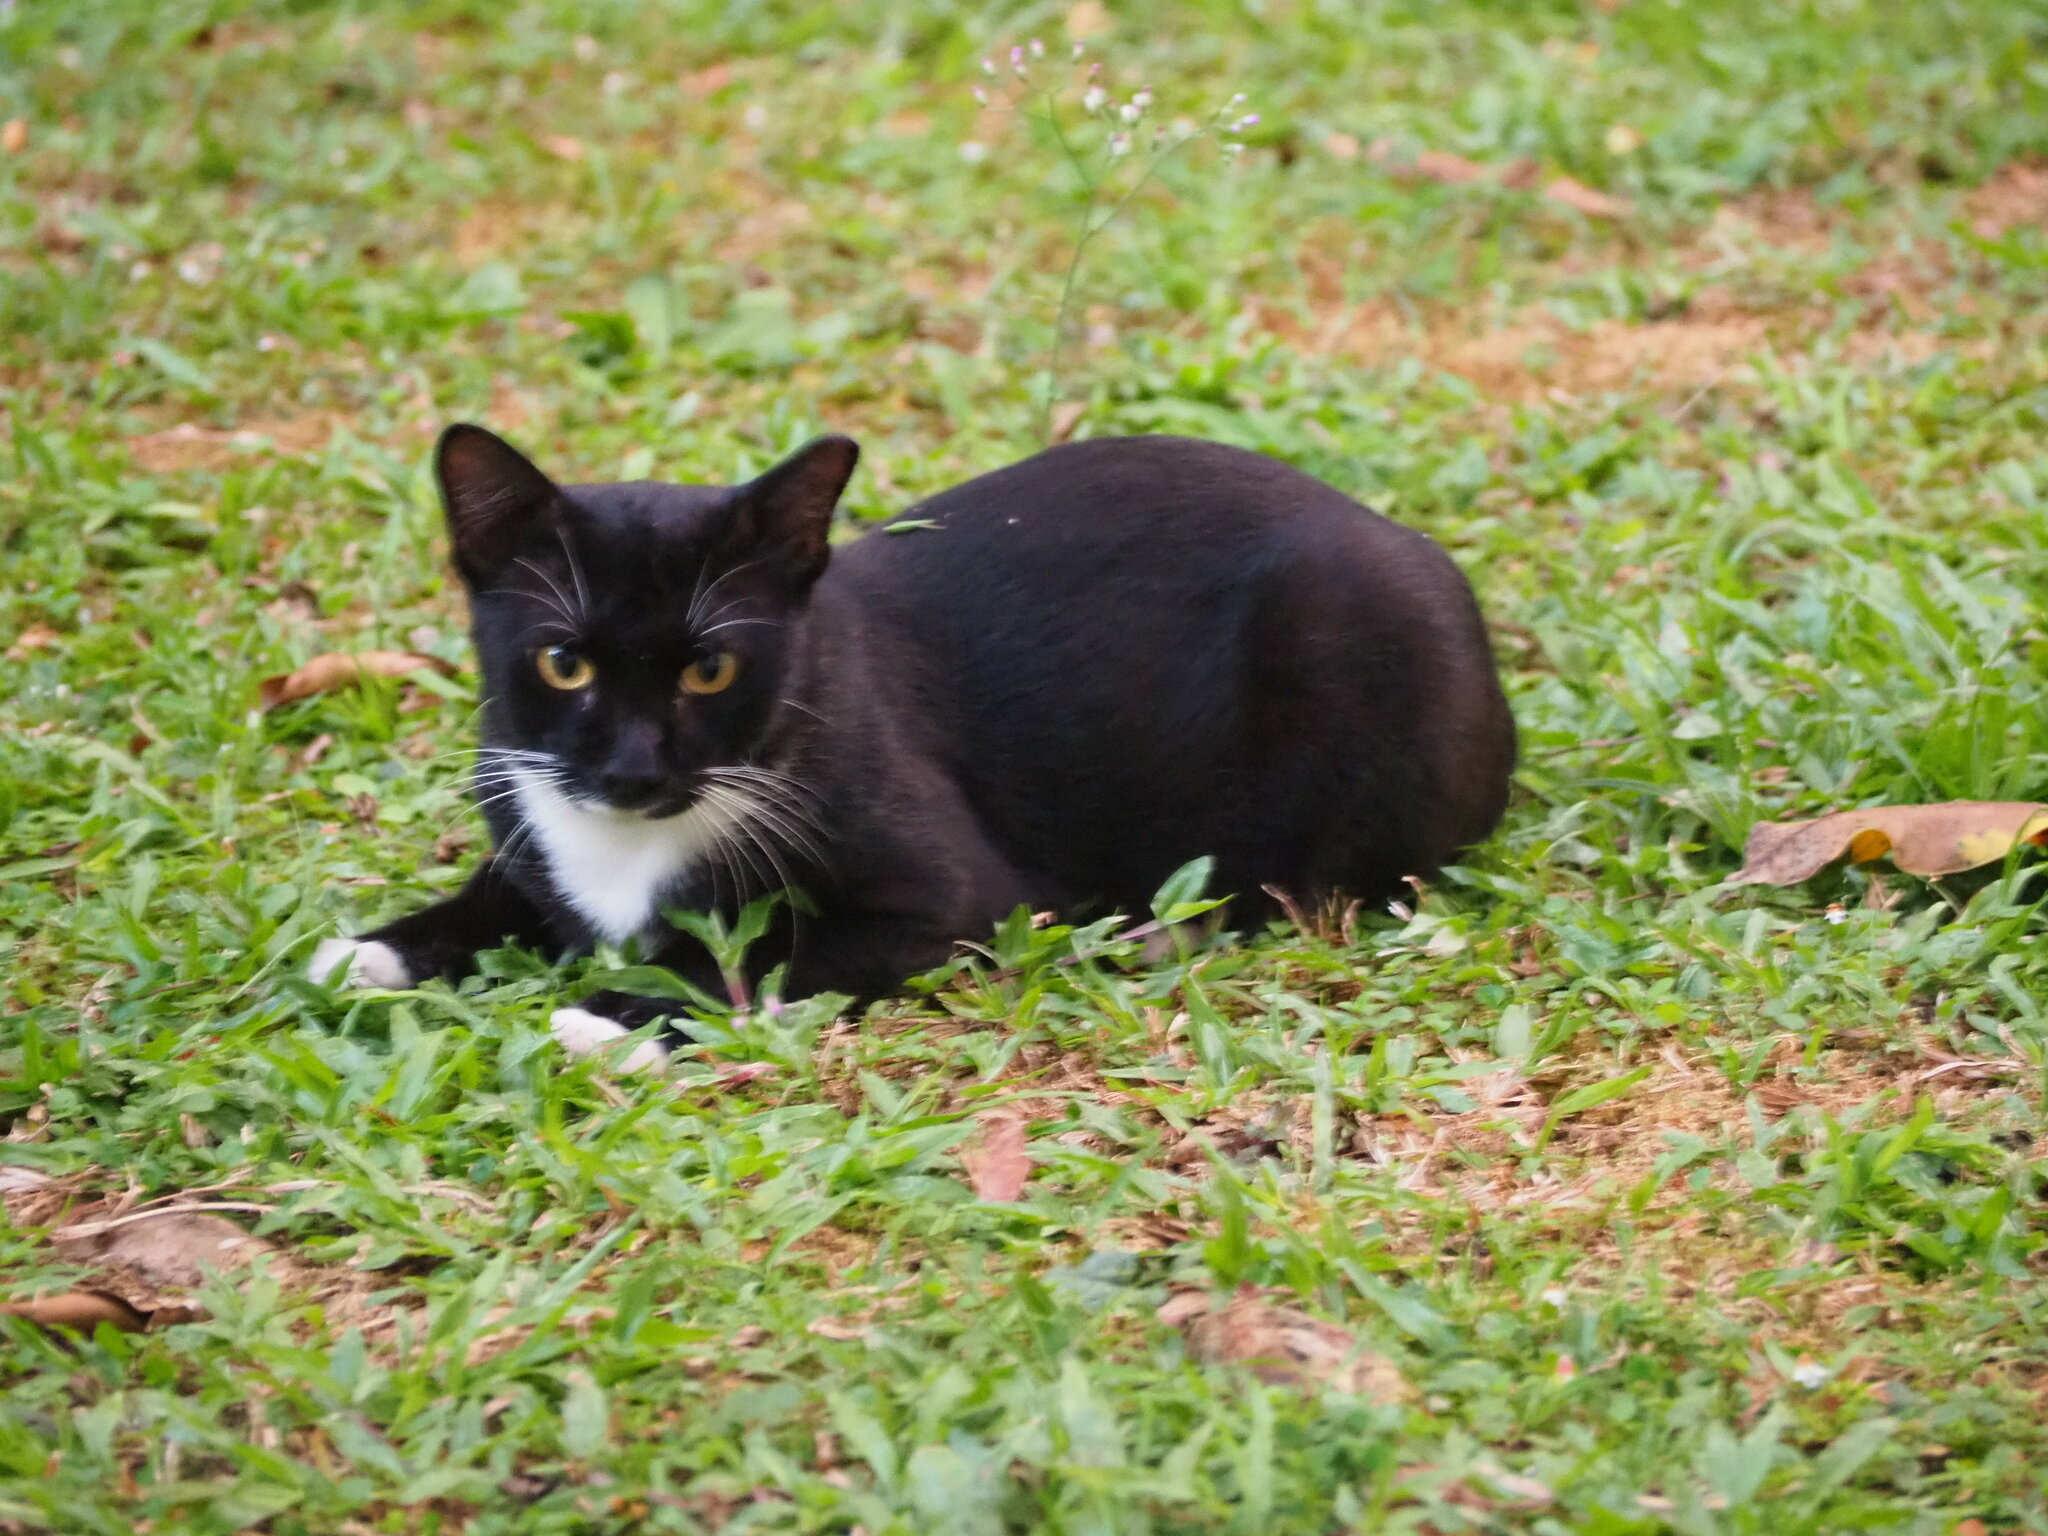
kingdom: Animalia
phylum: Chordata
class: Mammalia
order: Carnivora
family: Felidae
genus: Felis
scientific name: Felis catus
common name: Domestic cat
